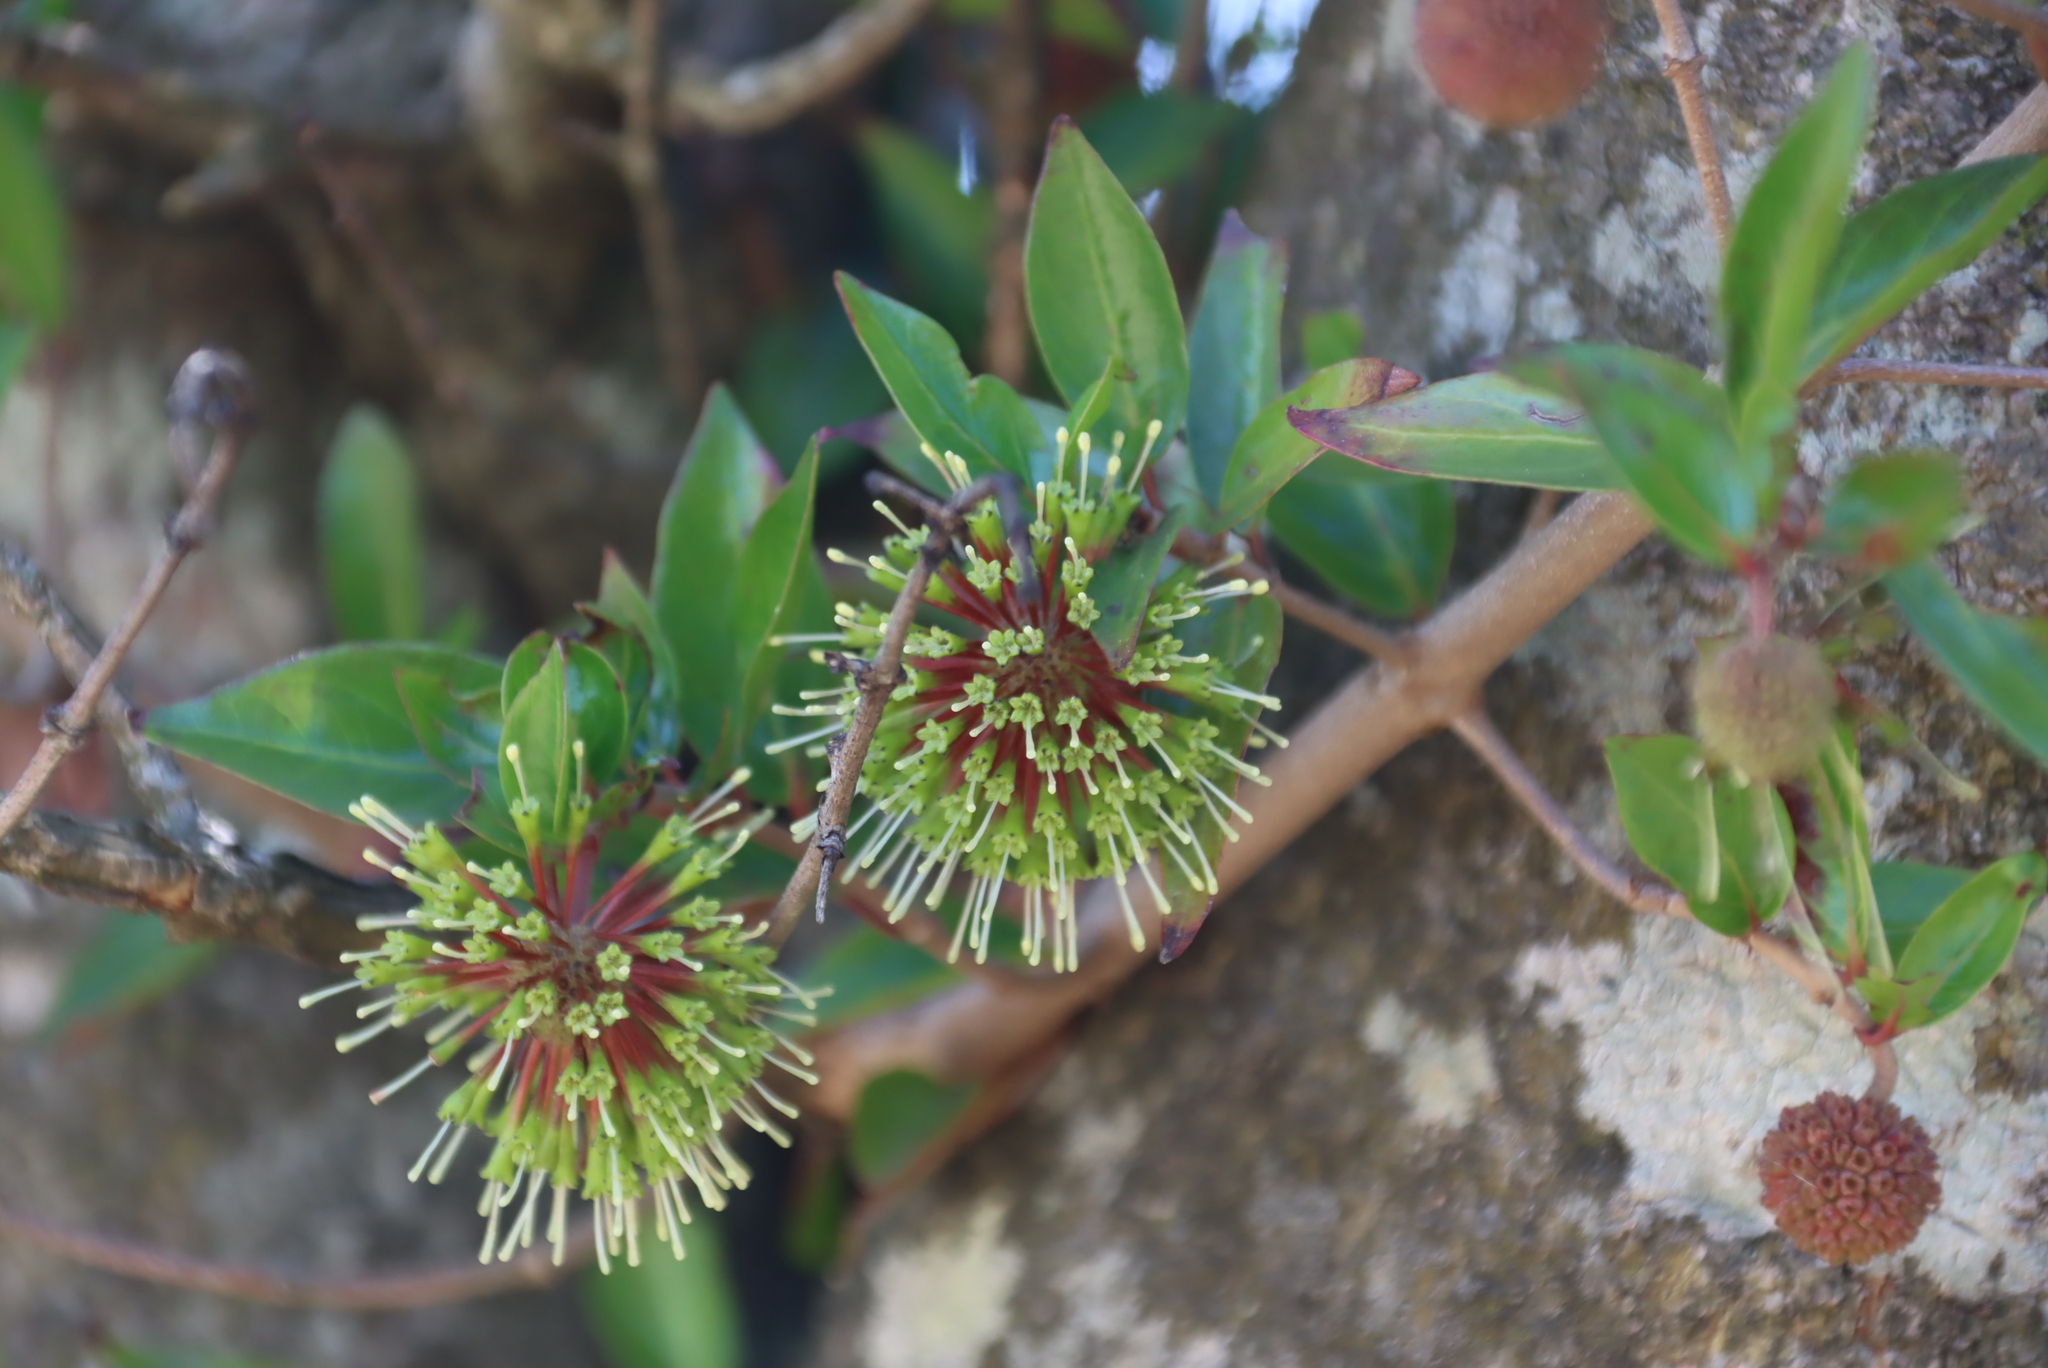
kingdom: Plantae
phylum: Tracheophyta
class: Magnoliopsida
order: Gentianales
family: Rubiaceae
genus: Cephalanthus
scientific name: Cephalanthus natalensis
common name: Strawberry bush
